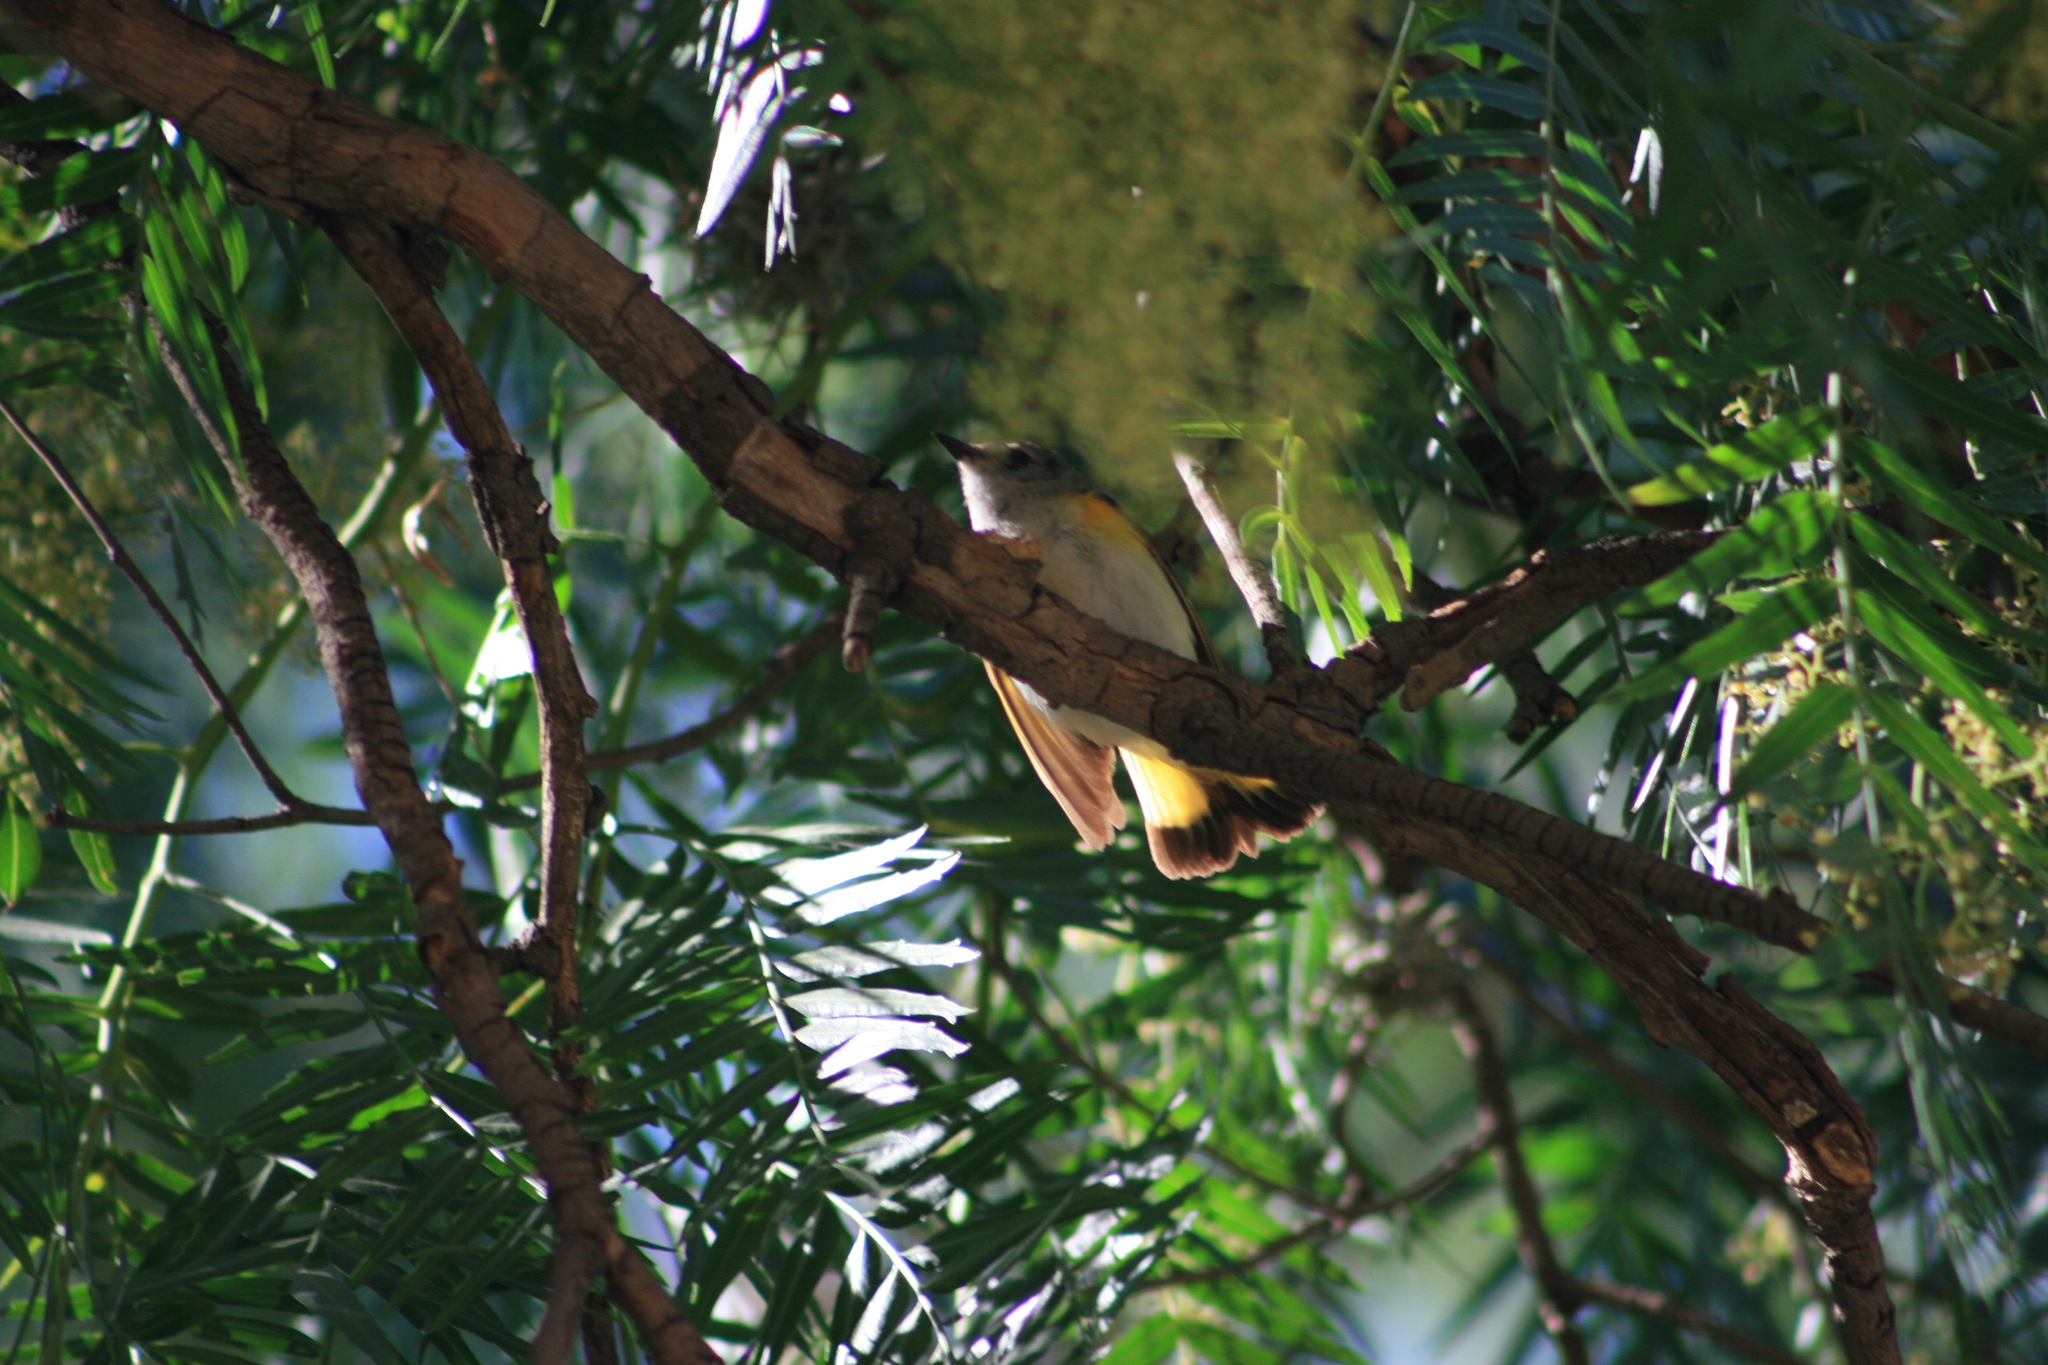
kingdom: Animalia
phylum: Chordata
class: Aves
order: Passeriformes
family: Parulidae
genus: Setophaga
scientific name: Setophaga ruticilla
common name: American redstart
